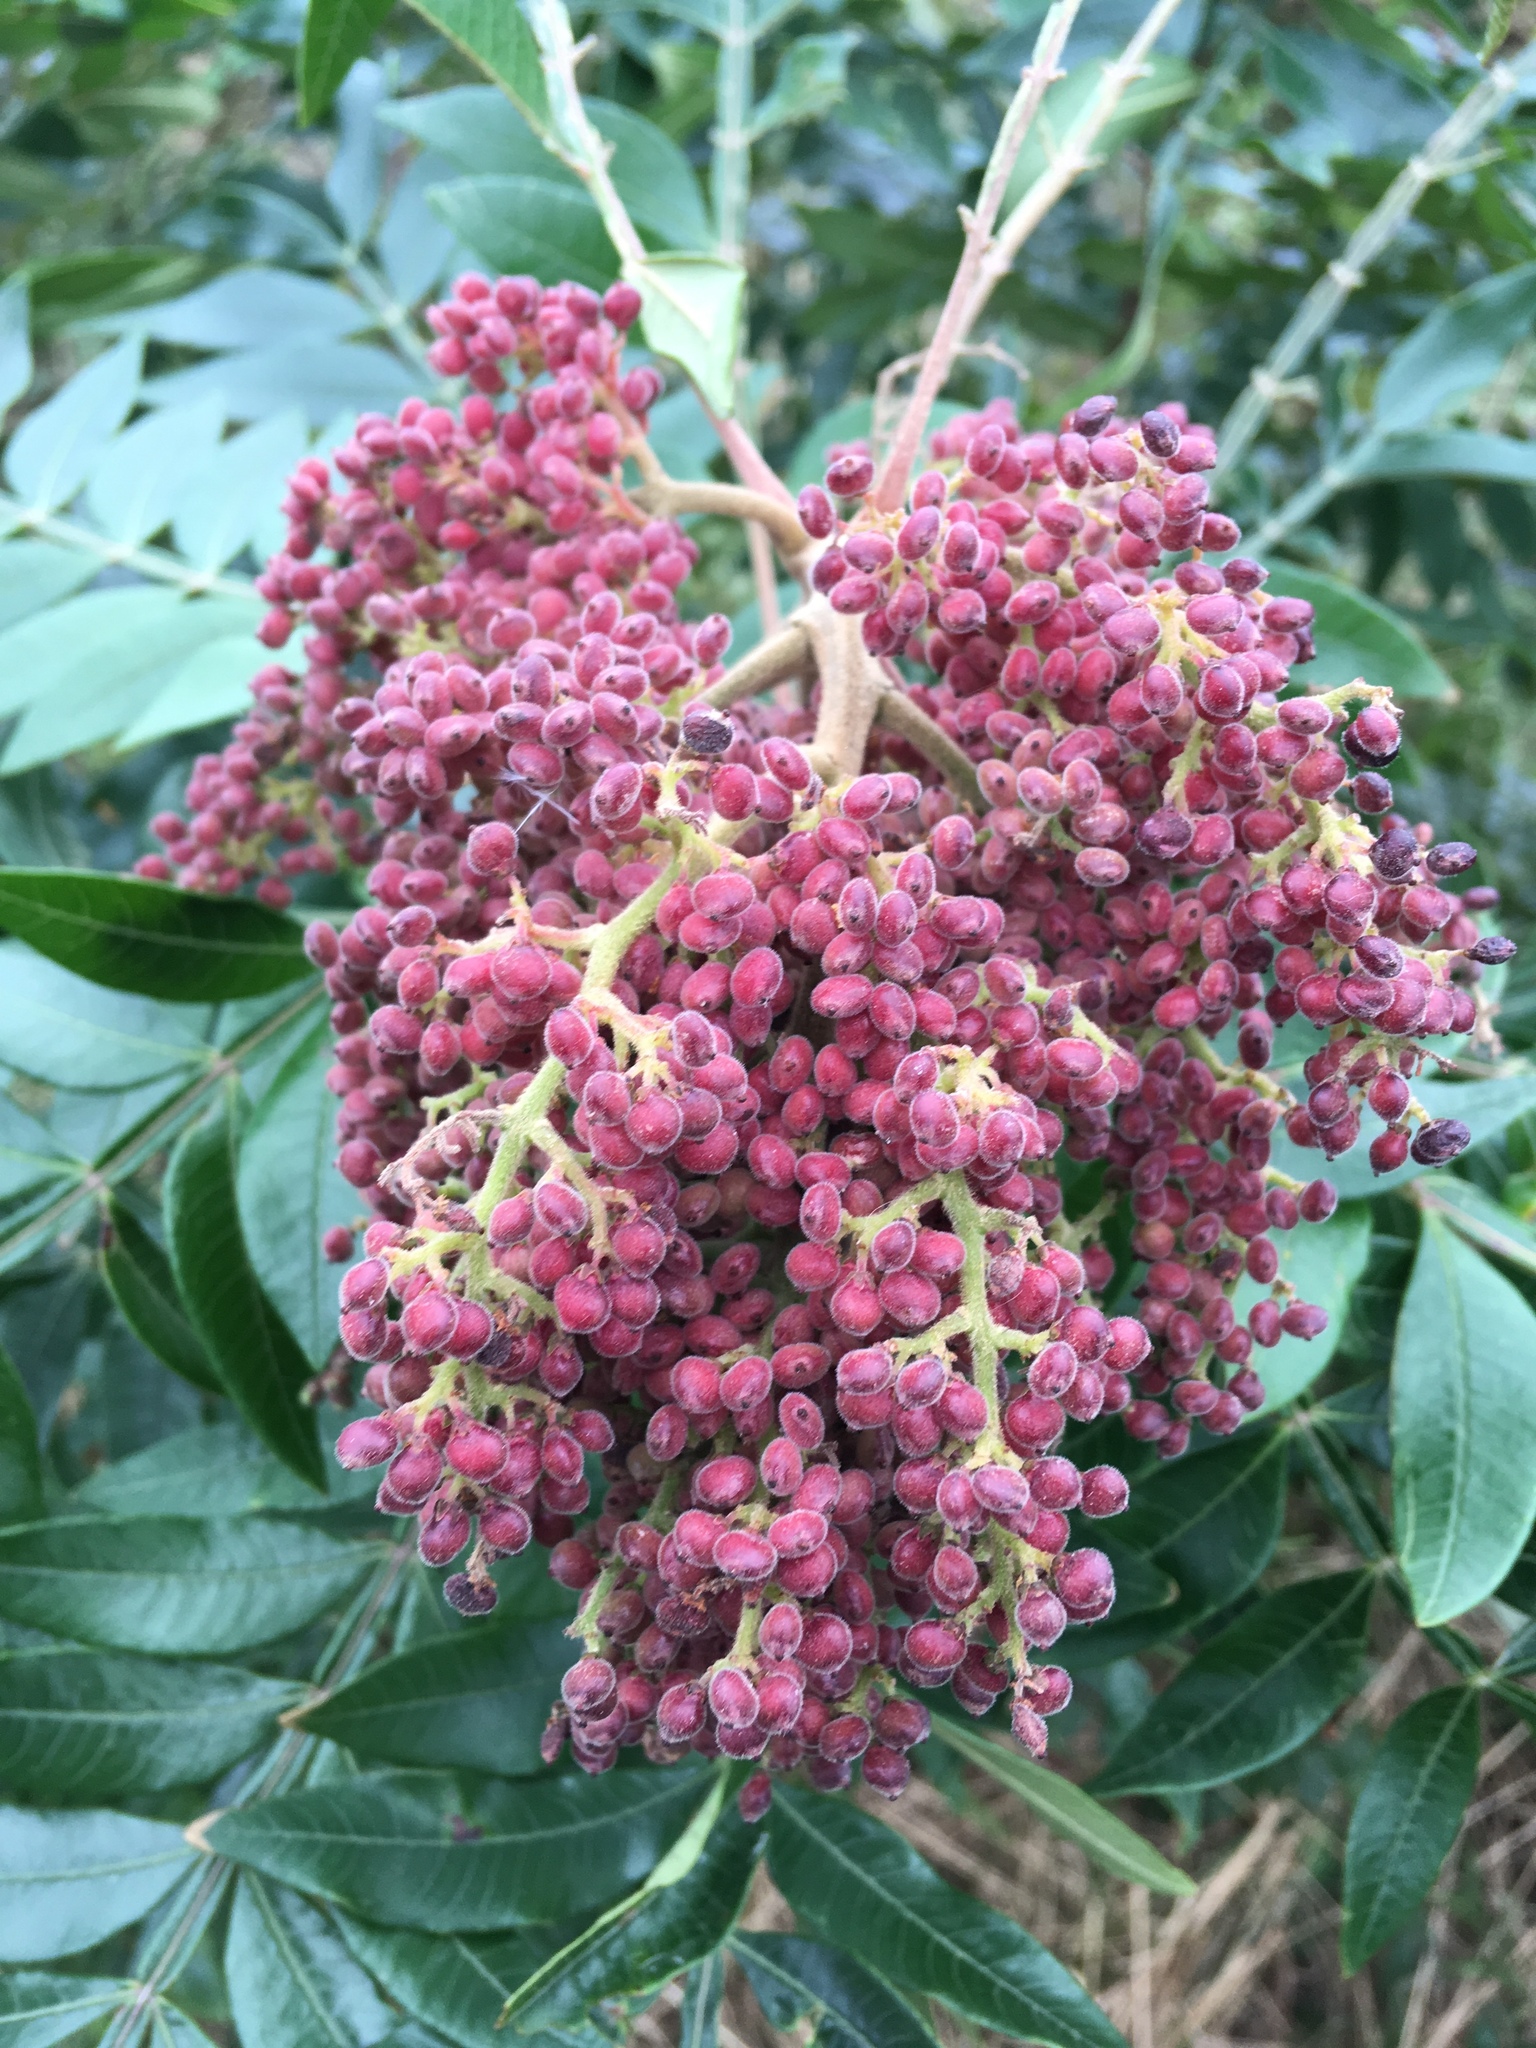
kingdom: Plantae
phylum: Tracheophyta
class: Magnoliopsida
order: Sapindales
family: Anacardiaceae
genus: Rhus
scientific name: Rhus copallina
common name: Shining sumac
